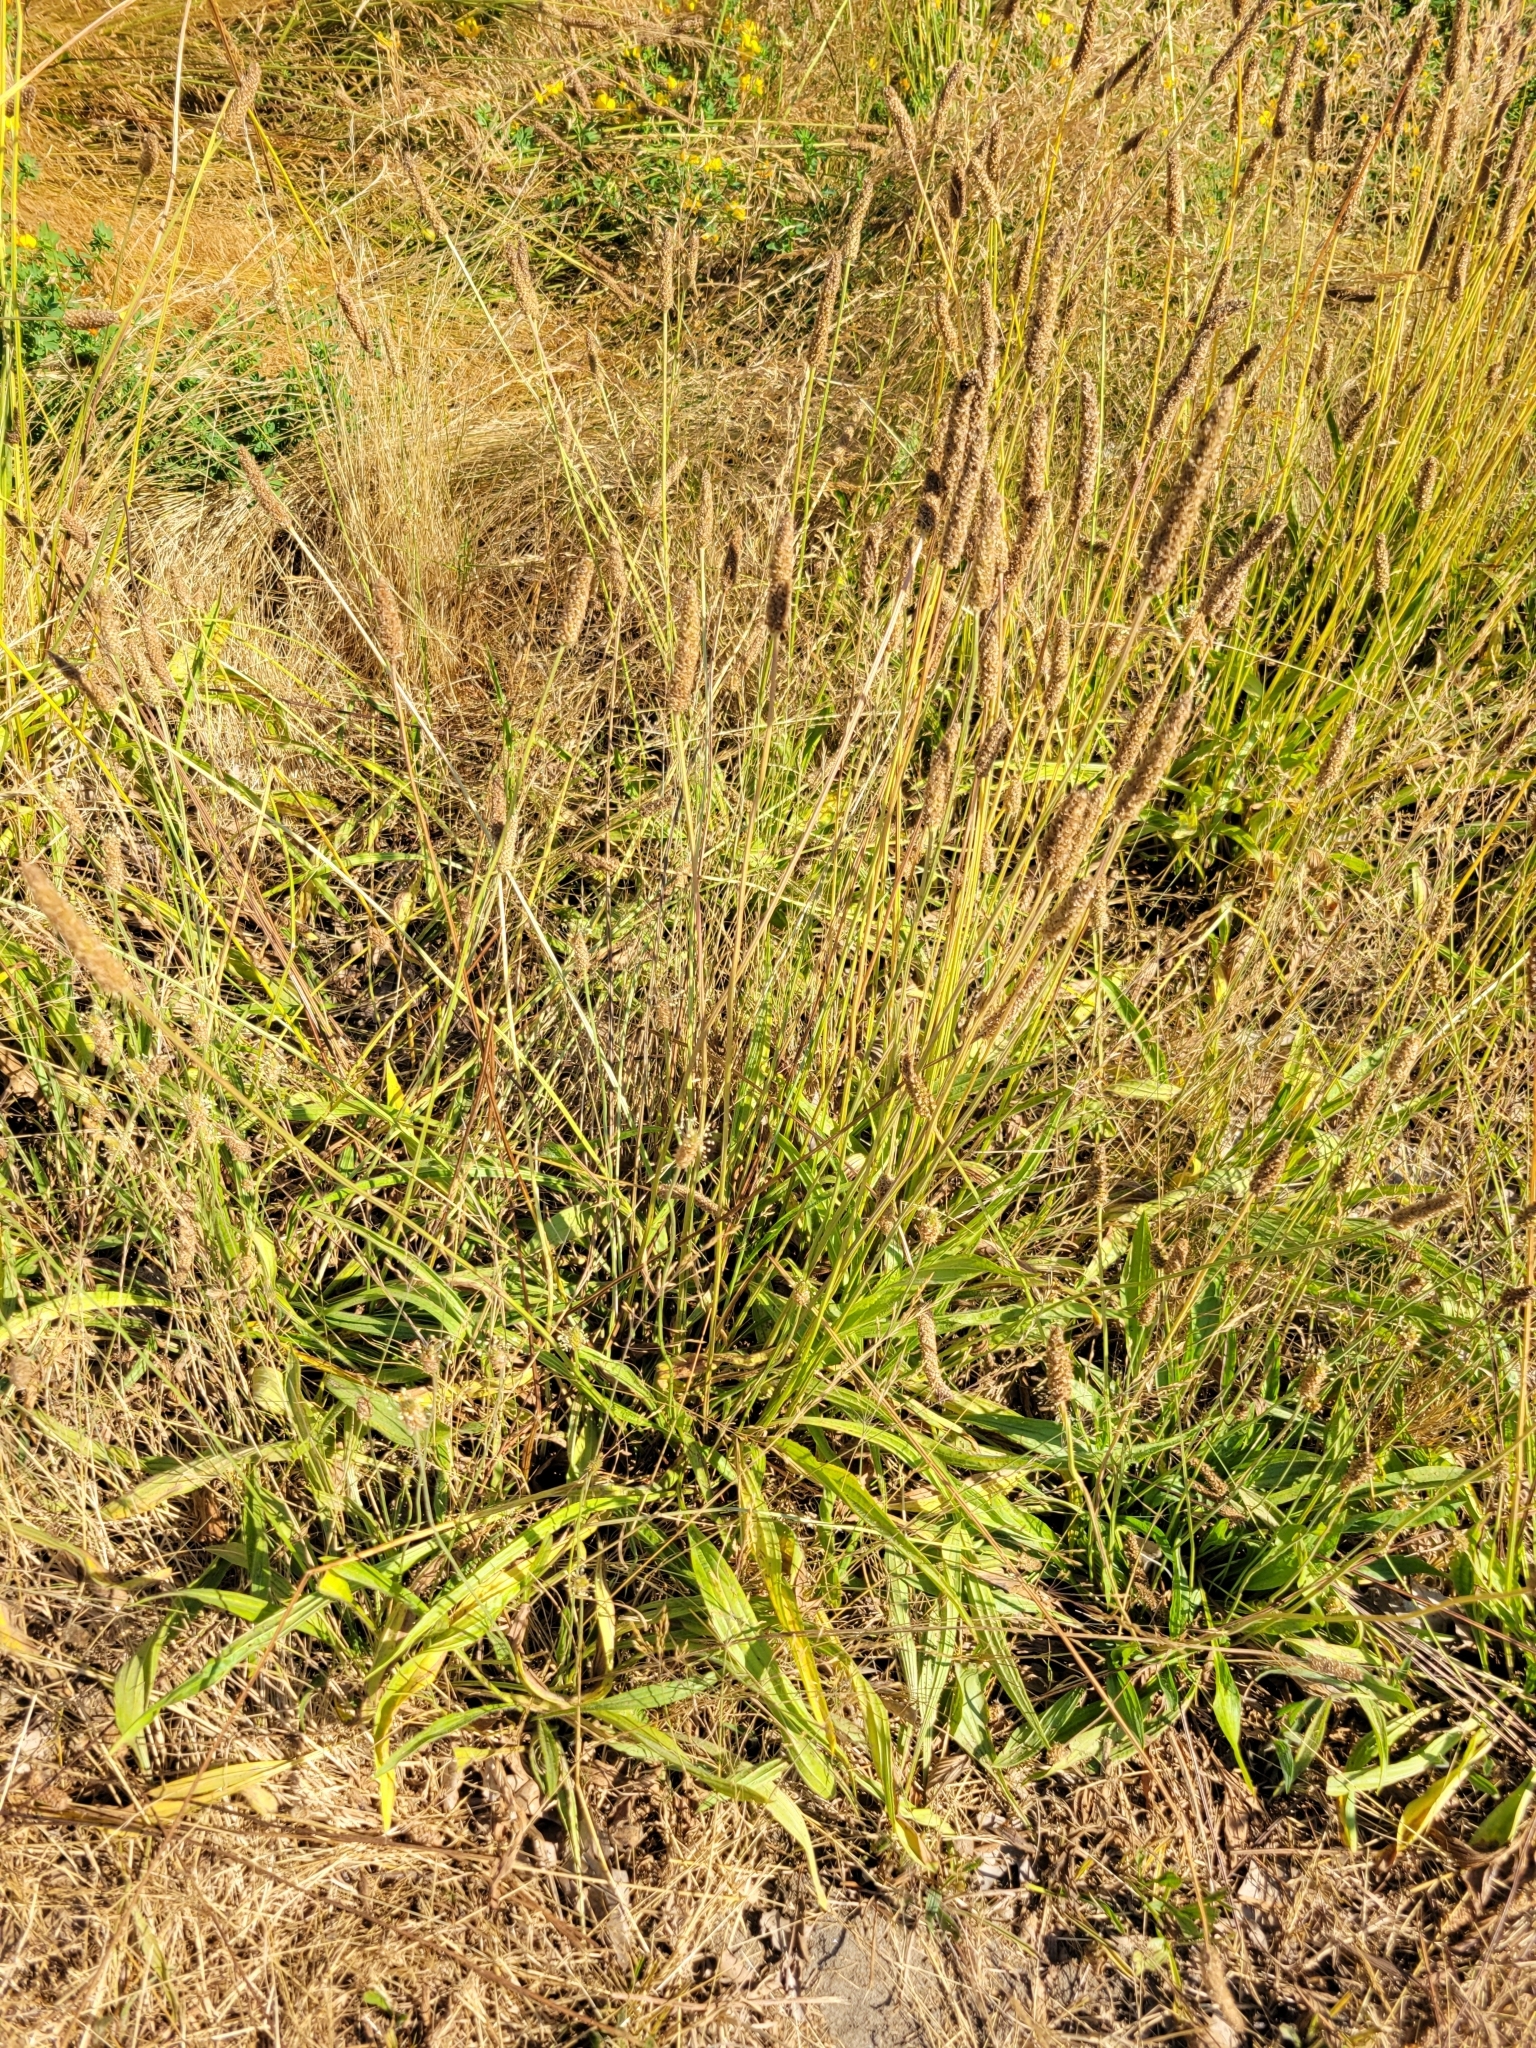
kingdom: Plantae
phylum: Tracheophyta
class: Magnoliopsida
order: Lamiales
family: Plantaginaceae
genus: Plantago
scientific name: Plantago lanceolata
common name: Ribwort plantain
